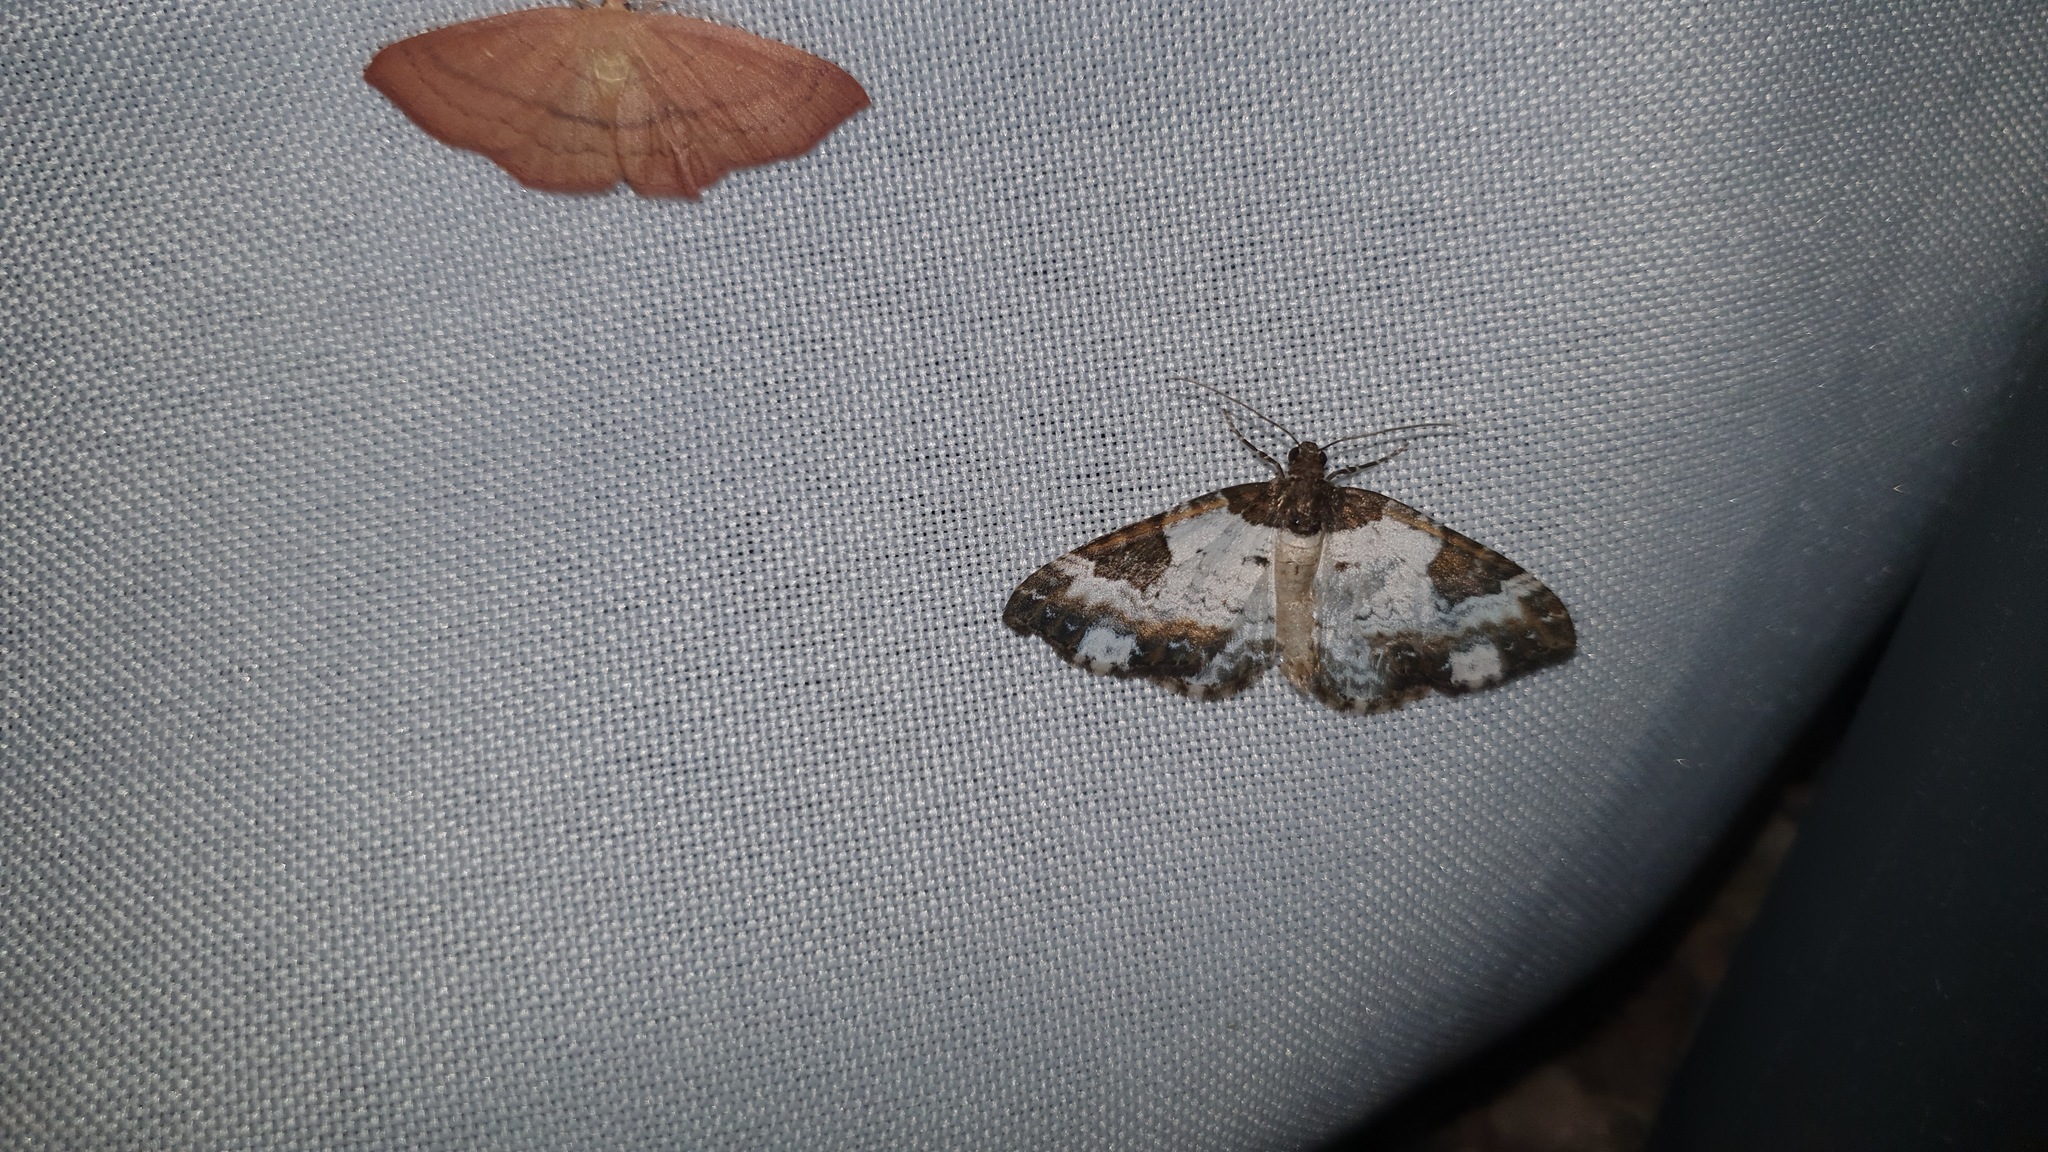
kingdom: Animalia
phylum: Arthropoda
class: Insecta
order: Lepidoptera
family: Geometridae
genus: Melanthia
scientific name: Melanthia procellata
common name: Pretty chalk carpet
